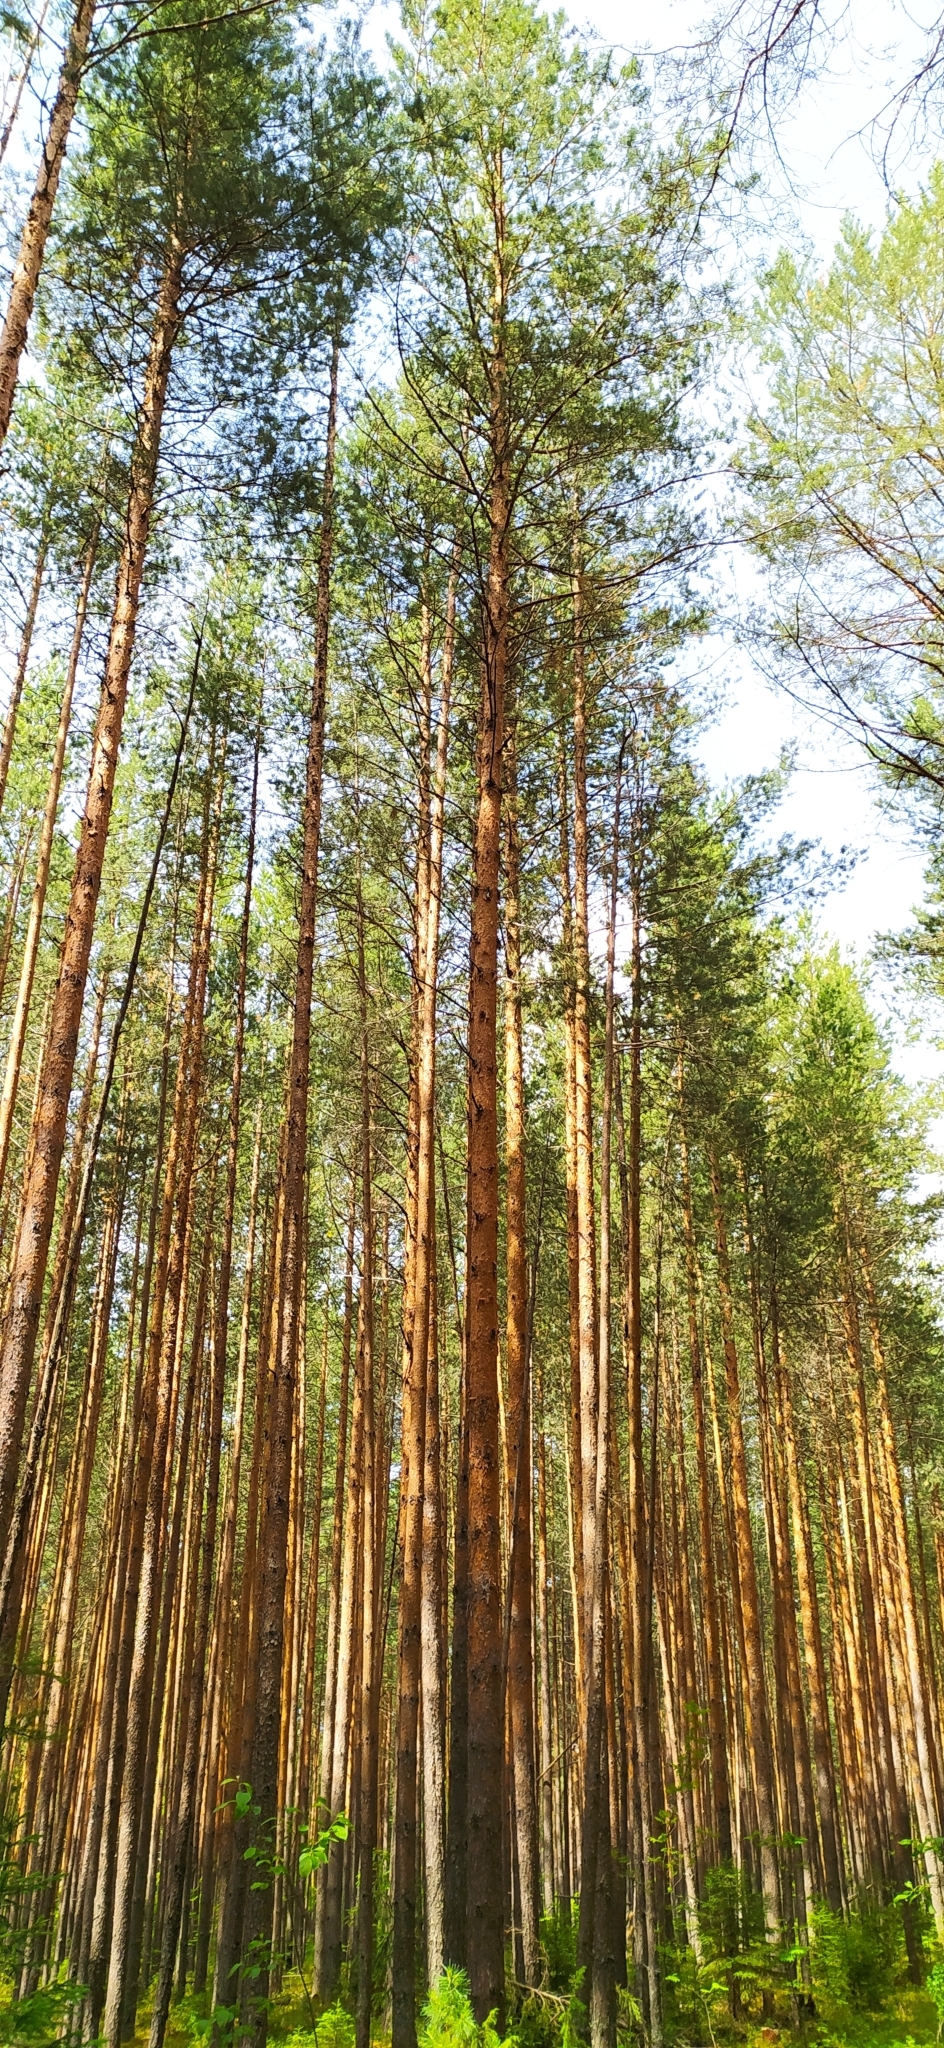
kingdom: Plantae
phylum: Tracheophyta
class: Pinopsida
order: Pinales
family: Pinaceae
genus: Pinus
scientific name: Pinus sylvestris
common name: Scots pine
